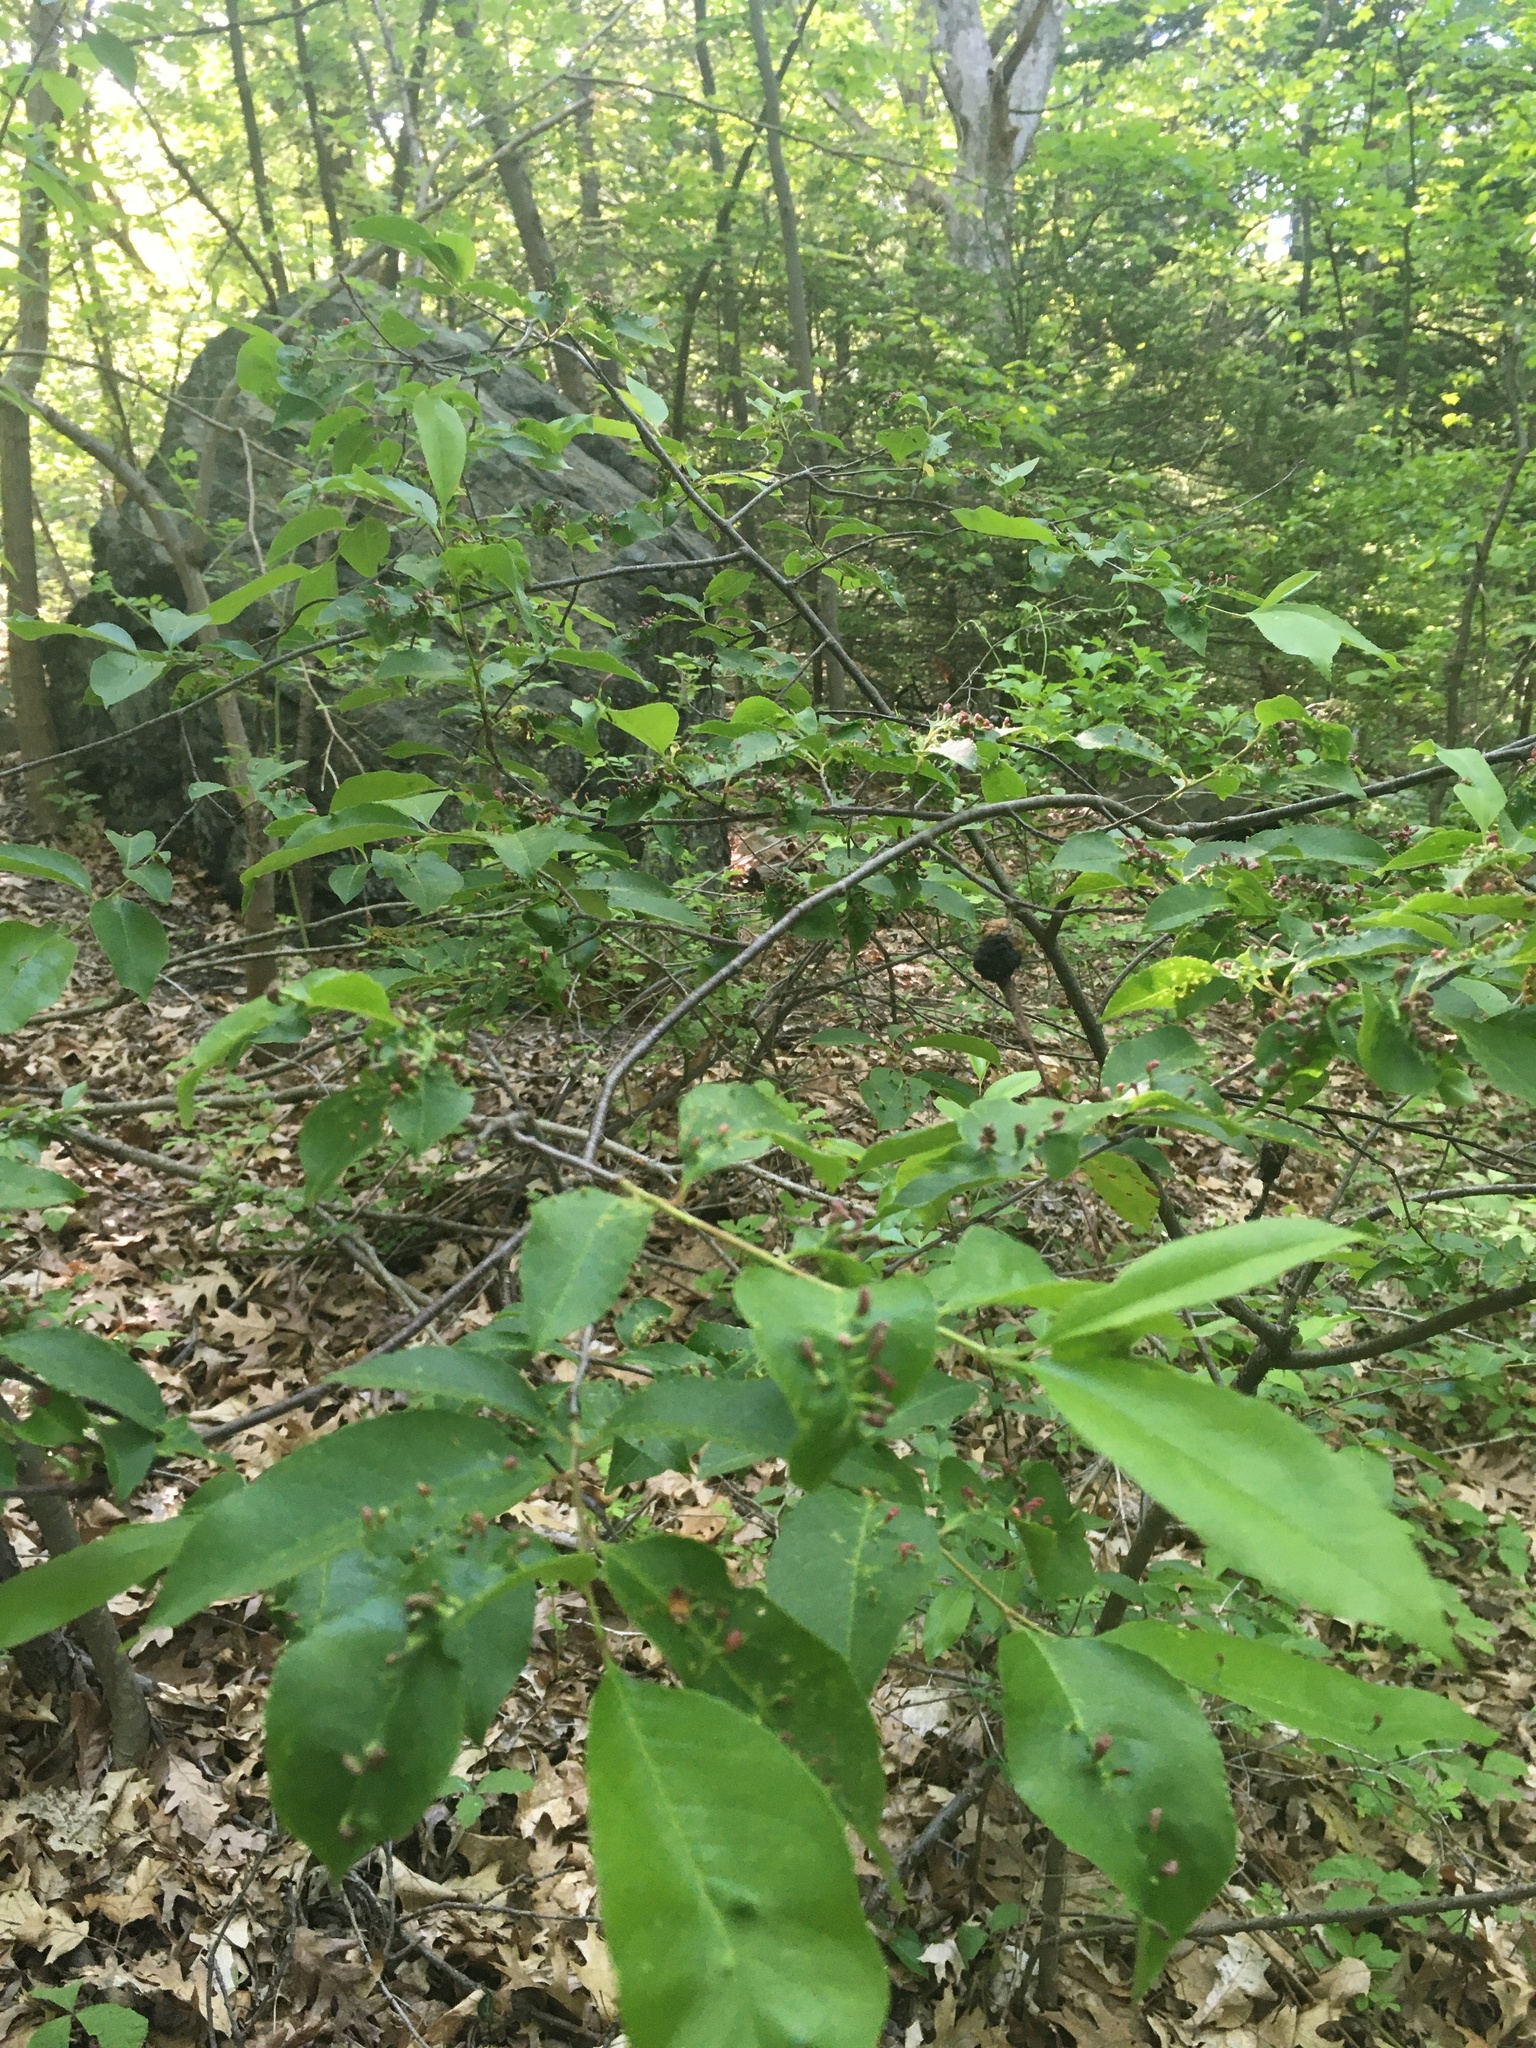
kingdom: Animalia
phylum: Arthropoda
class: Arachnida
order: Trombidiformes
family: Eriophyidae
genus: Eriophyes
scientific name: Eriophyes
